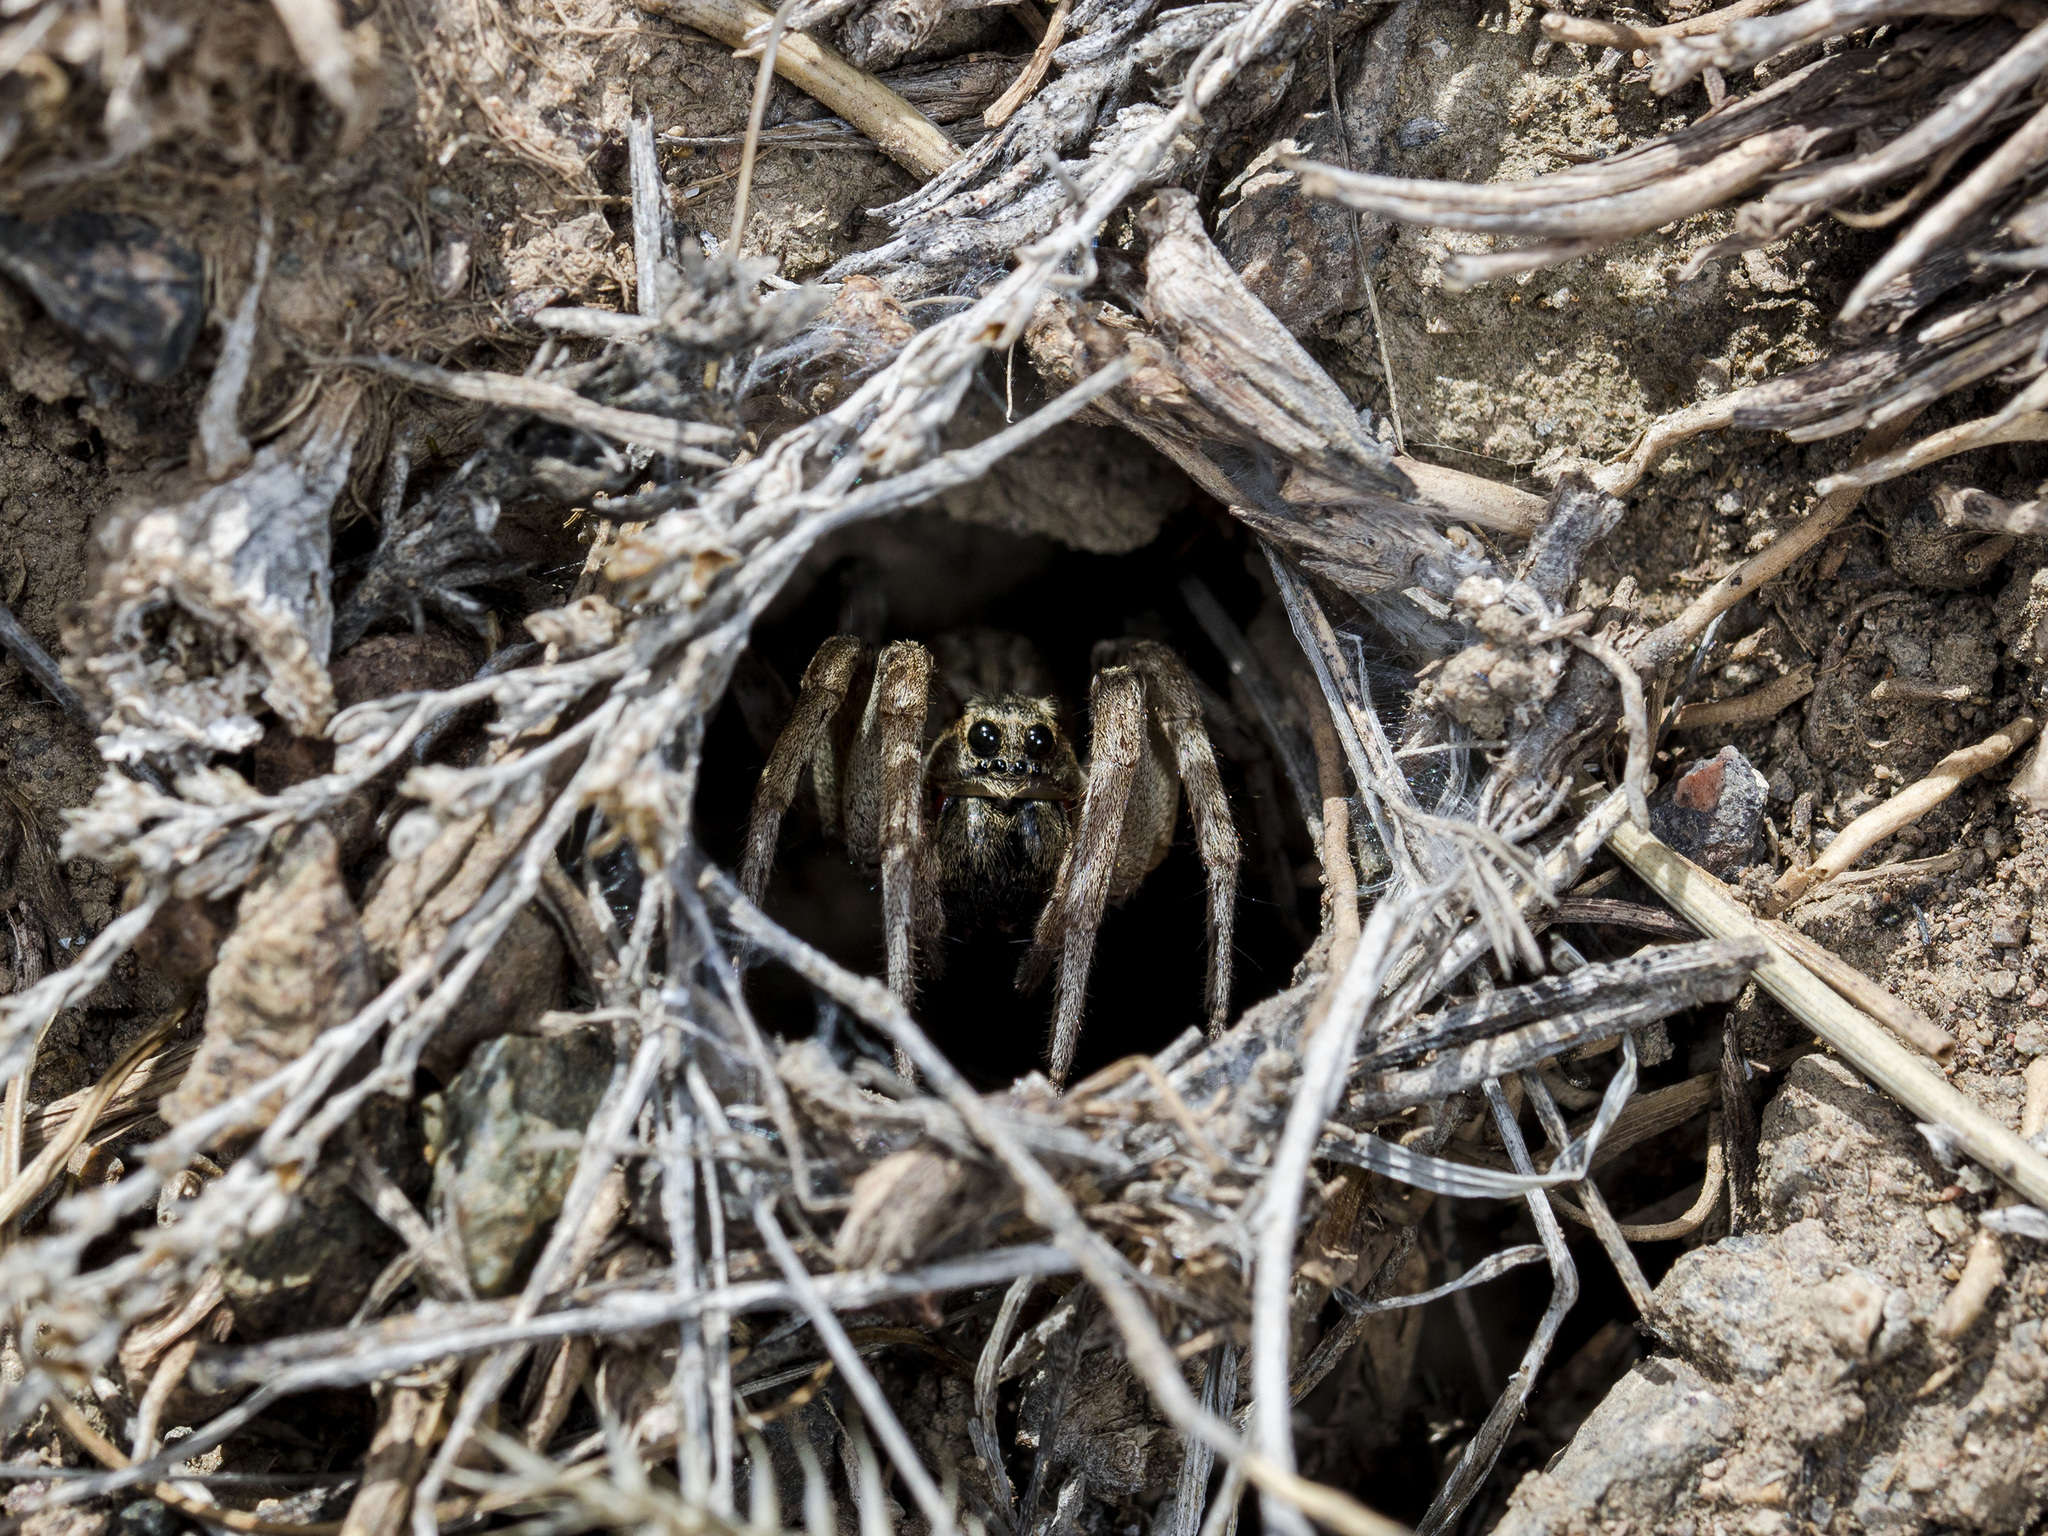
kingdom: Animalia
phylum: Arthropoda
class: Arachnida
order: Araneae
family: Lycosidae
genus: Alopecosa
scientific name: Alopecosa marikovskyi
